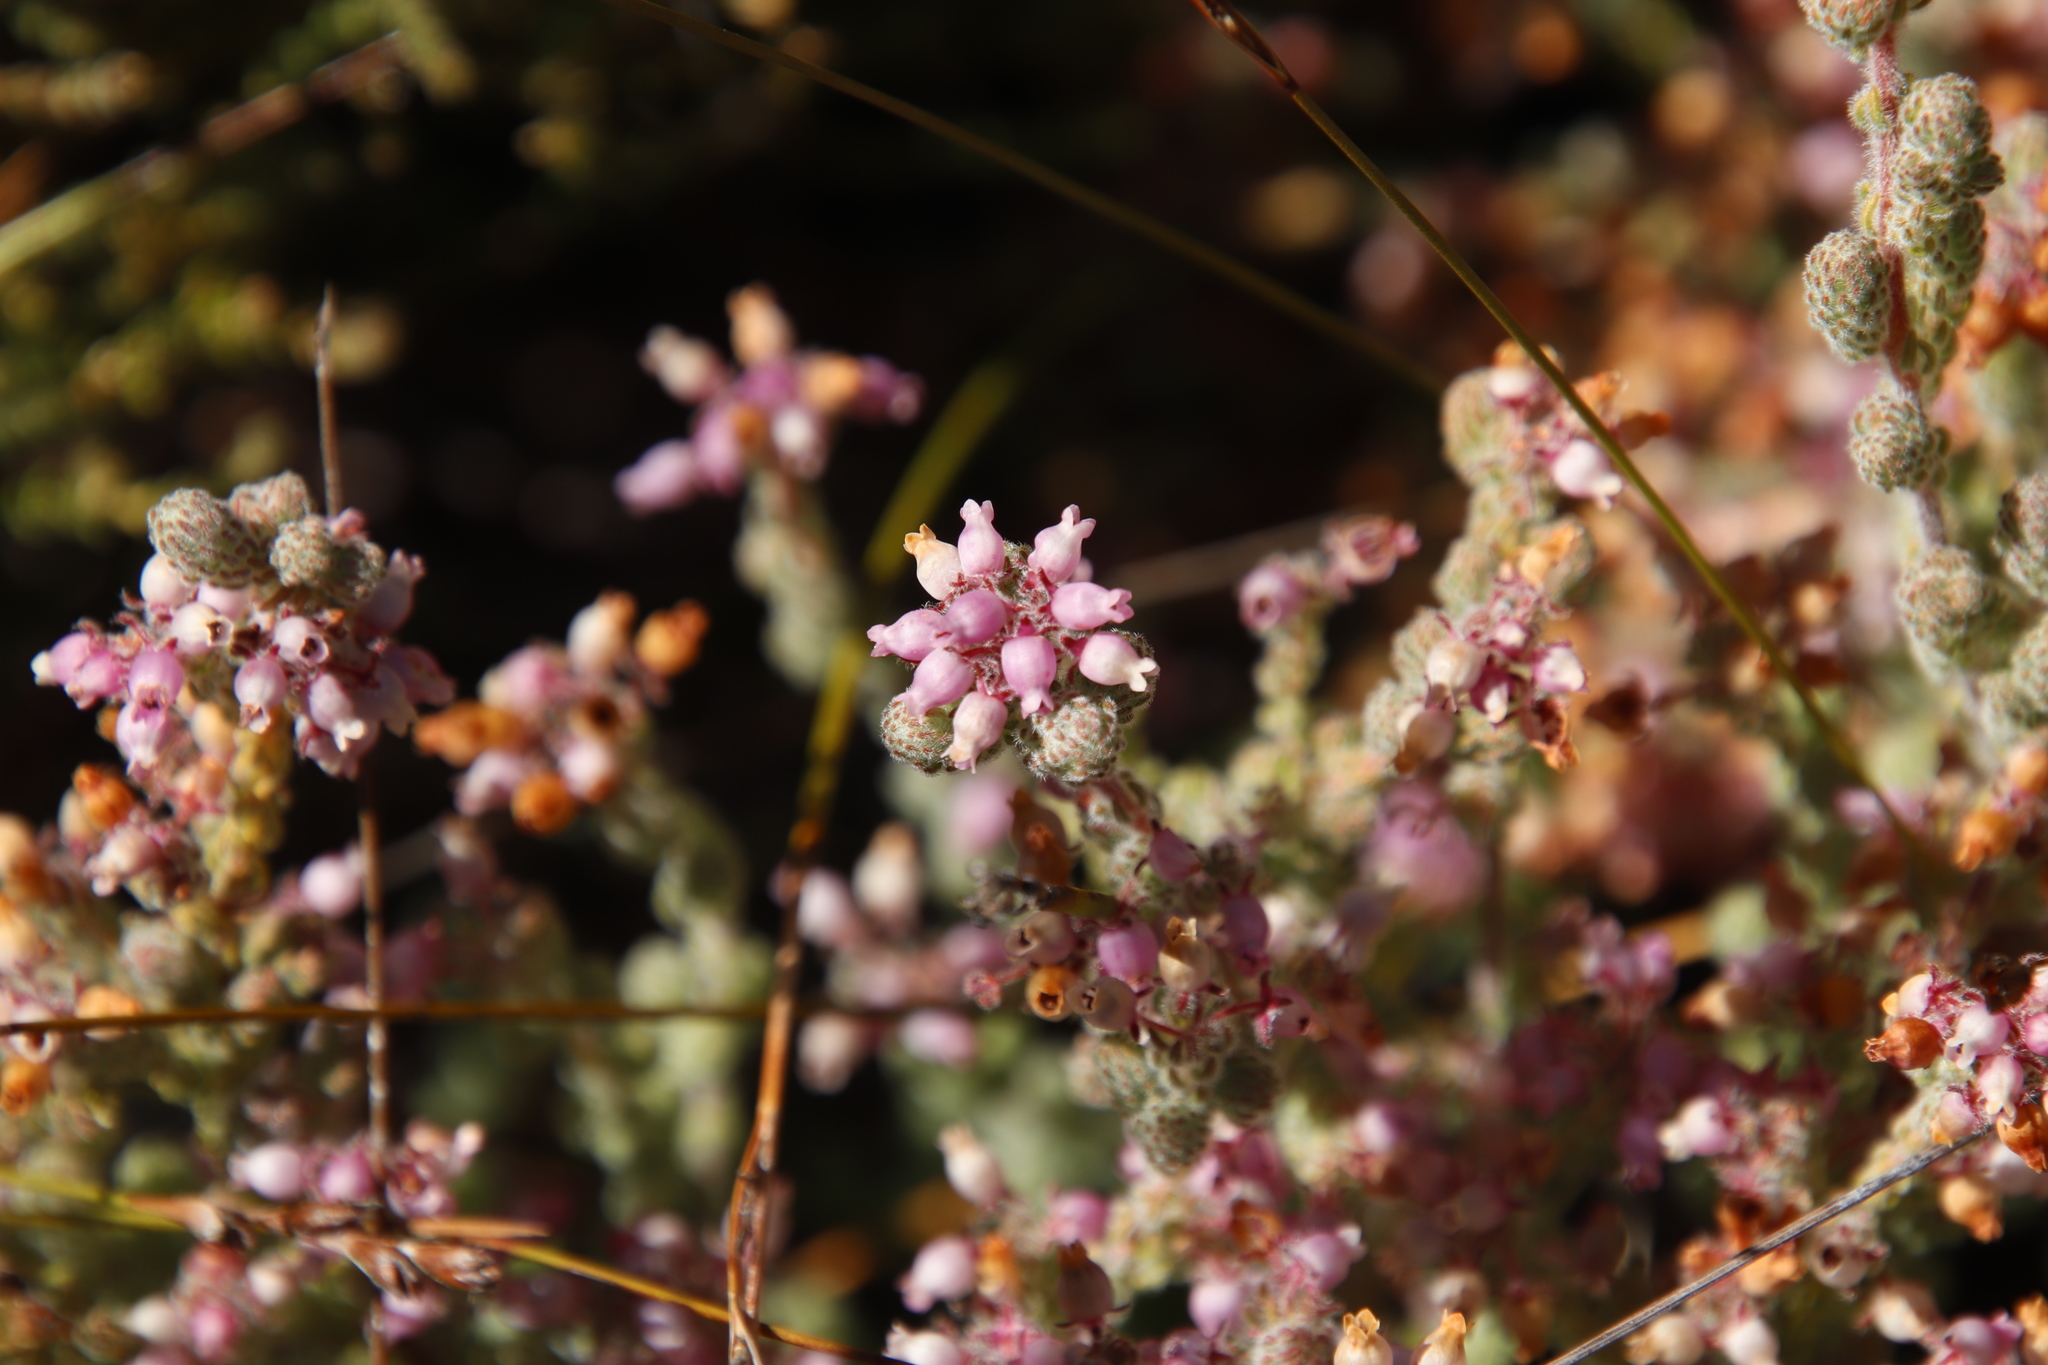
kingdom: Plantae
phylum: Tracheophyta
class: Magnoliopsida
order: Ericales
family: Ericaceae
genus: Erica
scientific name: Erica bergiana
